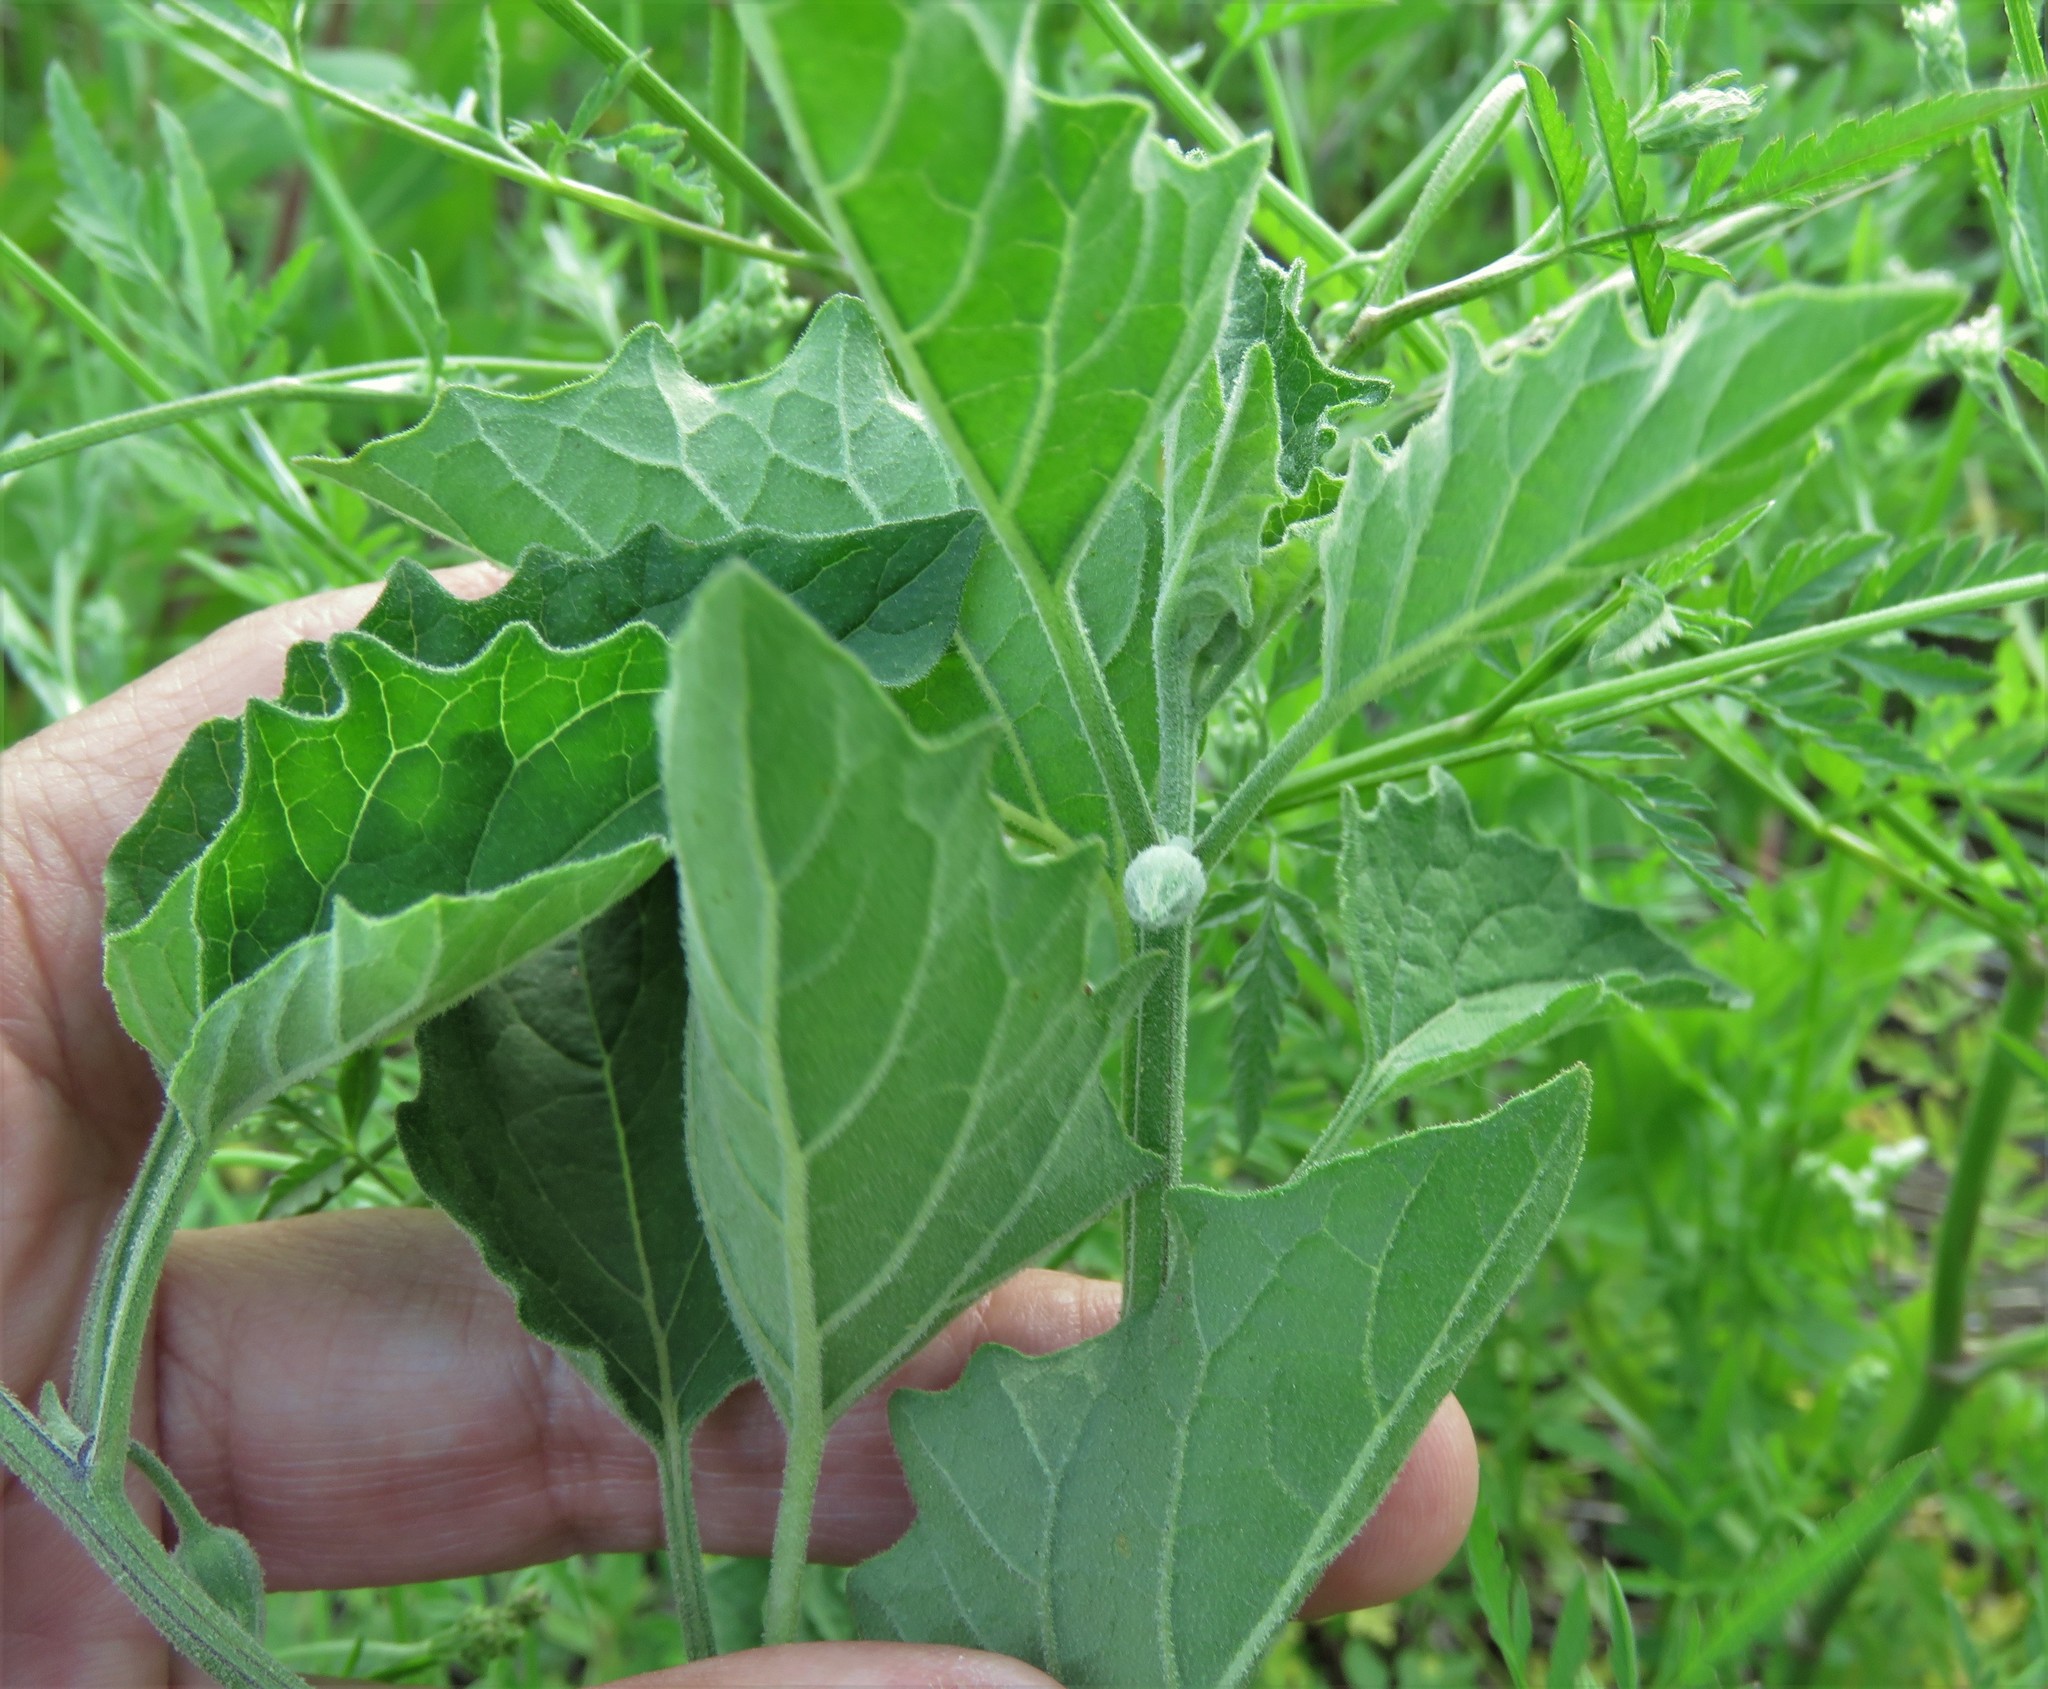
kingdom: Plantae
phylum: Tracheophyta
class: Magnoliopsida
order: Solanales
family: Solanaceae
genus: Physalis
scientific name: Physalis cinerascens
